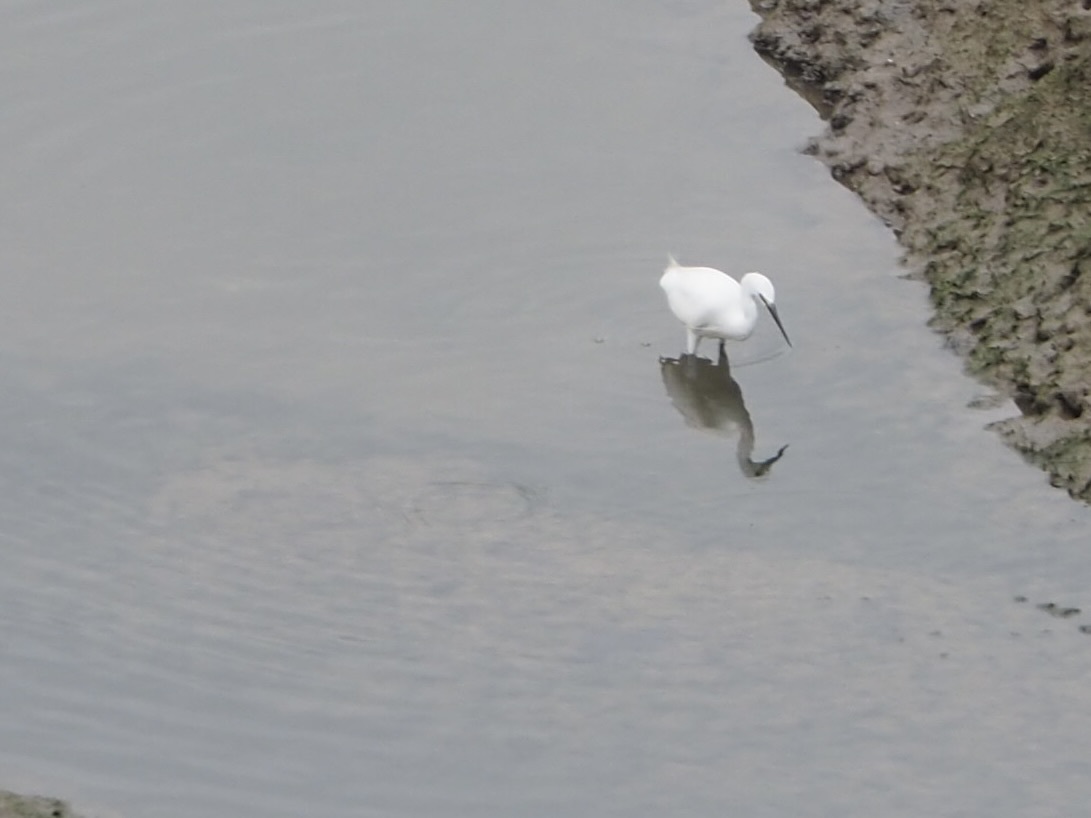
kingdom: Animalia
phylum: Chordata
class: Aves
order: Pelecaniformes
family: Ardeidae
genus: Egretta
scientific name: Egretta garzetta
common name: Little egret
